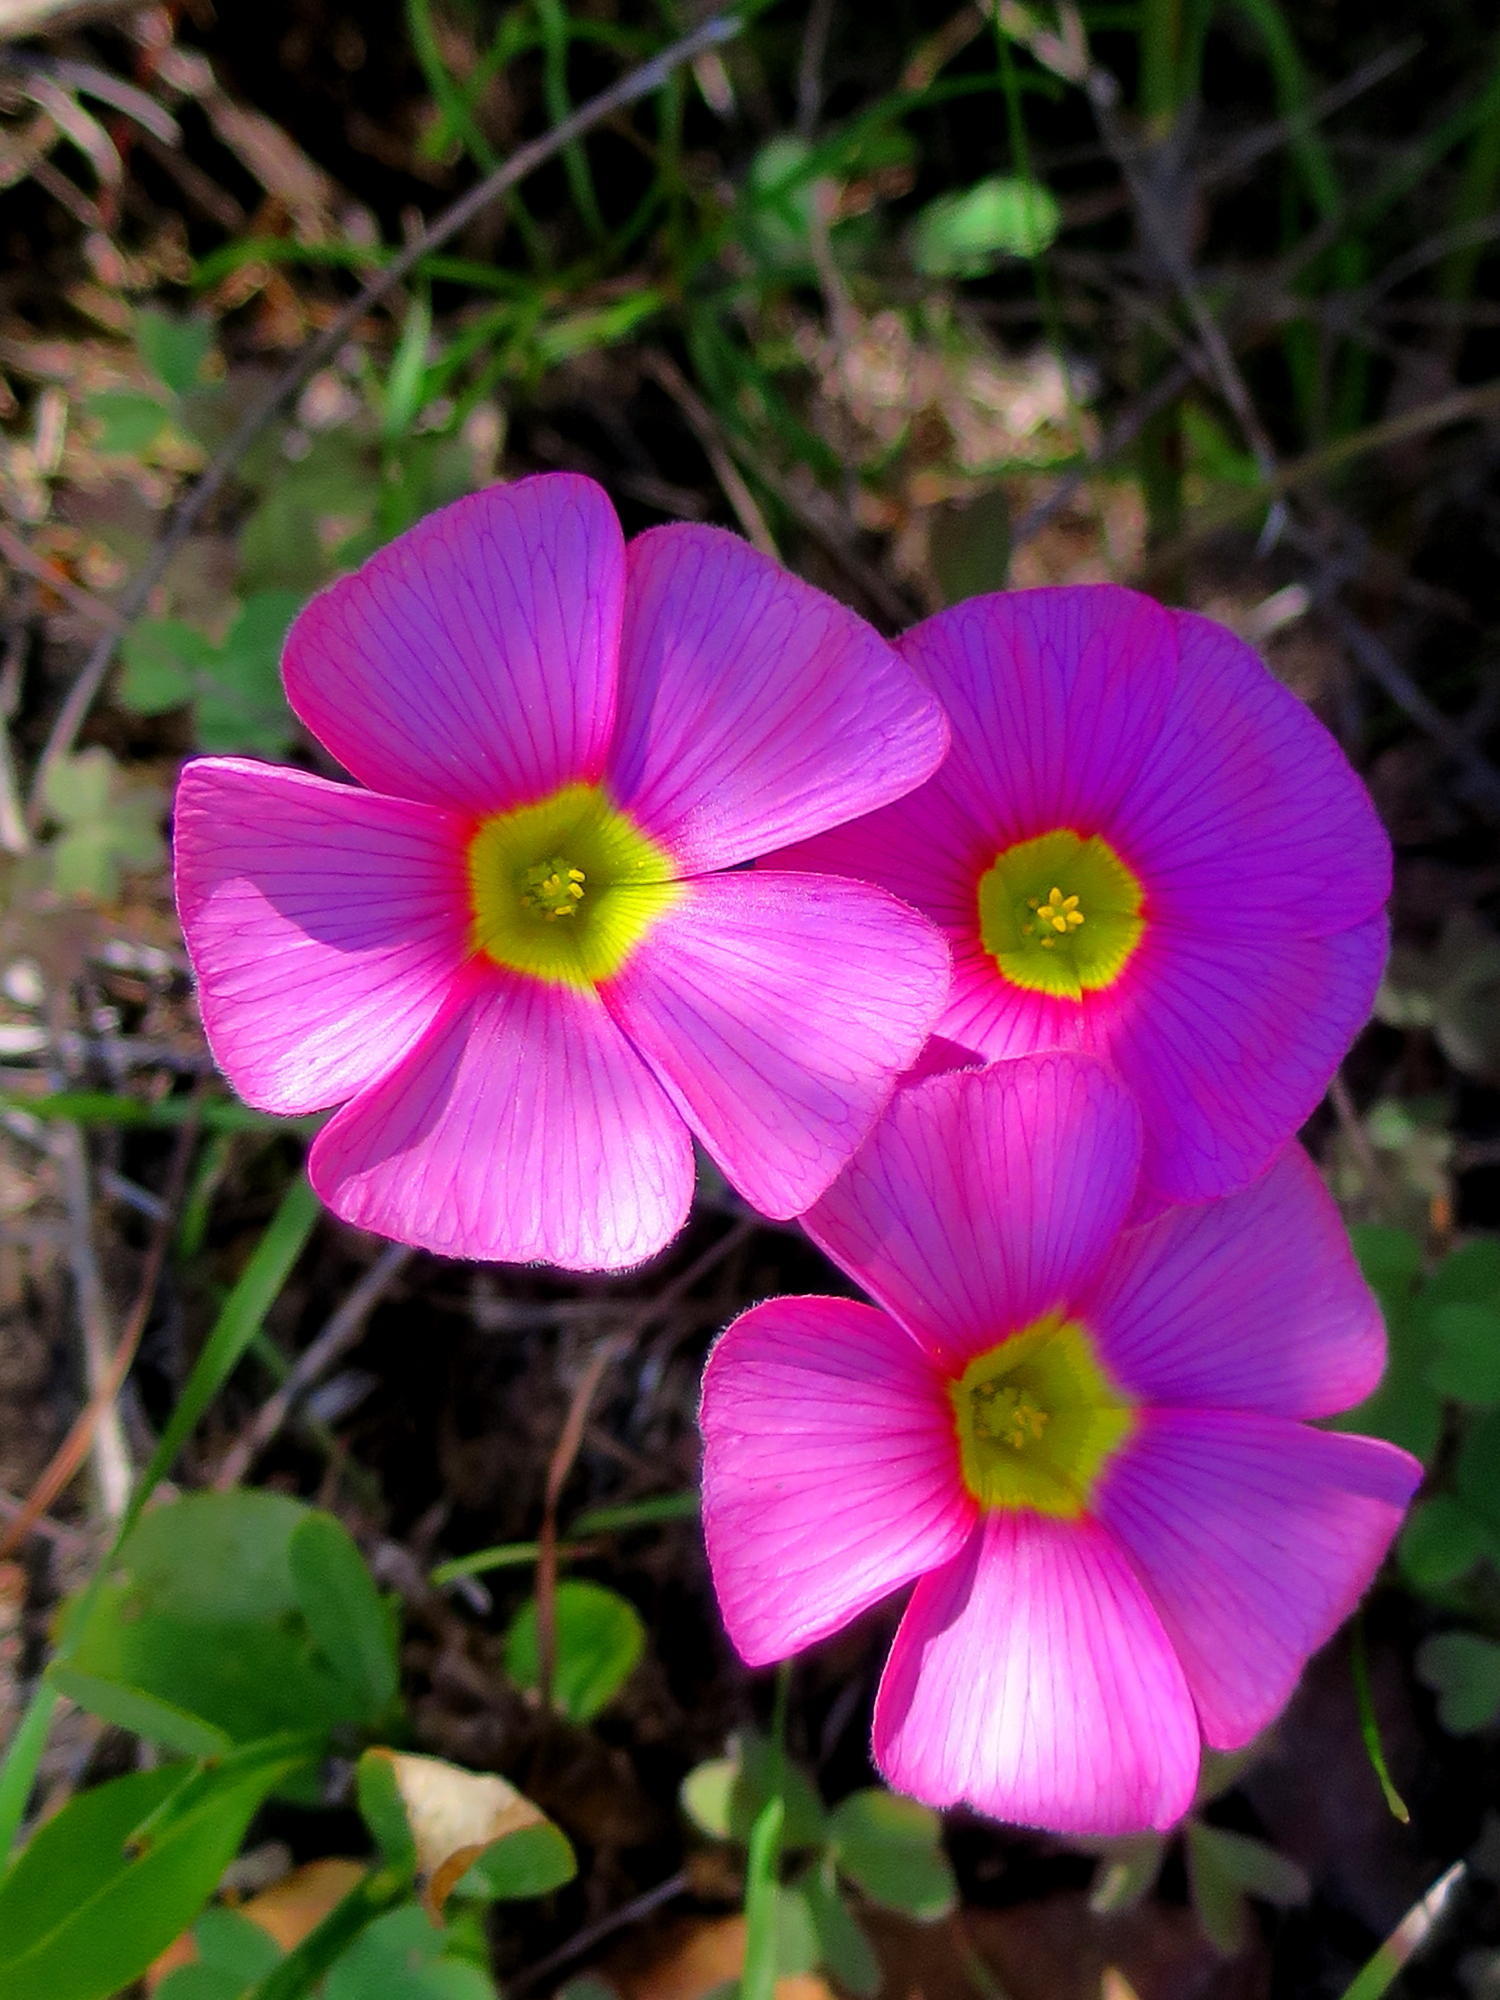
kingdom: Plantae
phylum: Tracheophyta
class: Magnoliopsida
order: Oxalidales
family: Oxalidaceae
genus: Oxalis
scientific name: Oxalis obtusa
